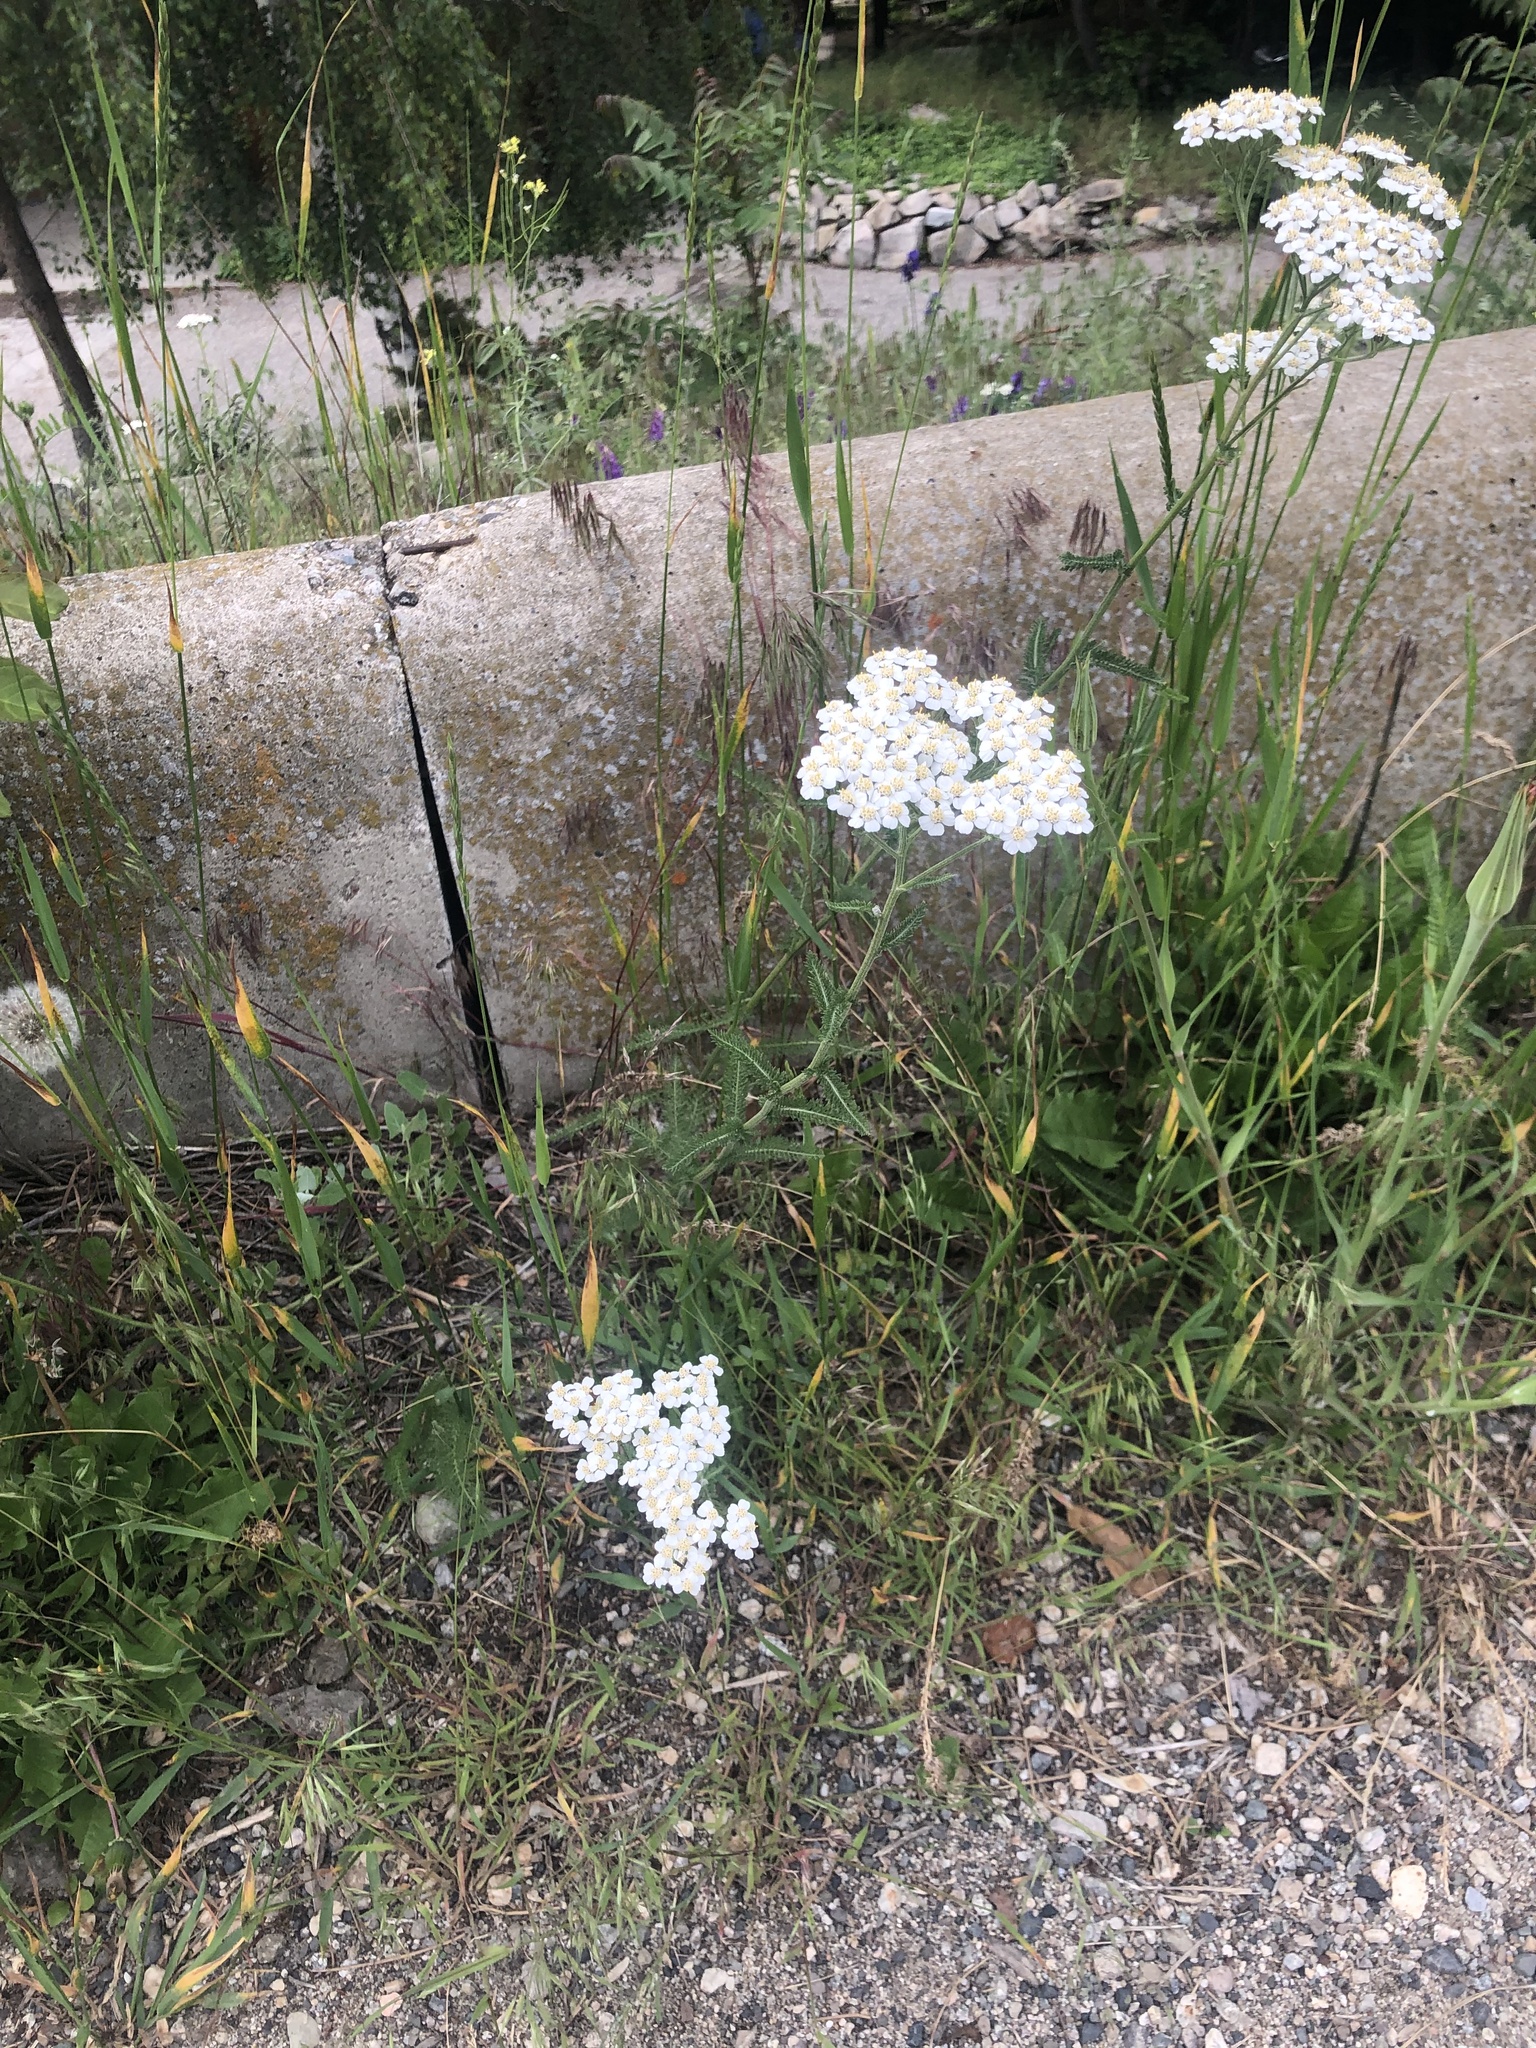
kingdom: Plantae
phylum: Tracheophyta
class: Magnoliopsida
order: Asterales
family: Asteraceae
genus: Achillea
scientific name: Achillea millefolium
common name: Yarrow
